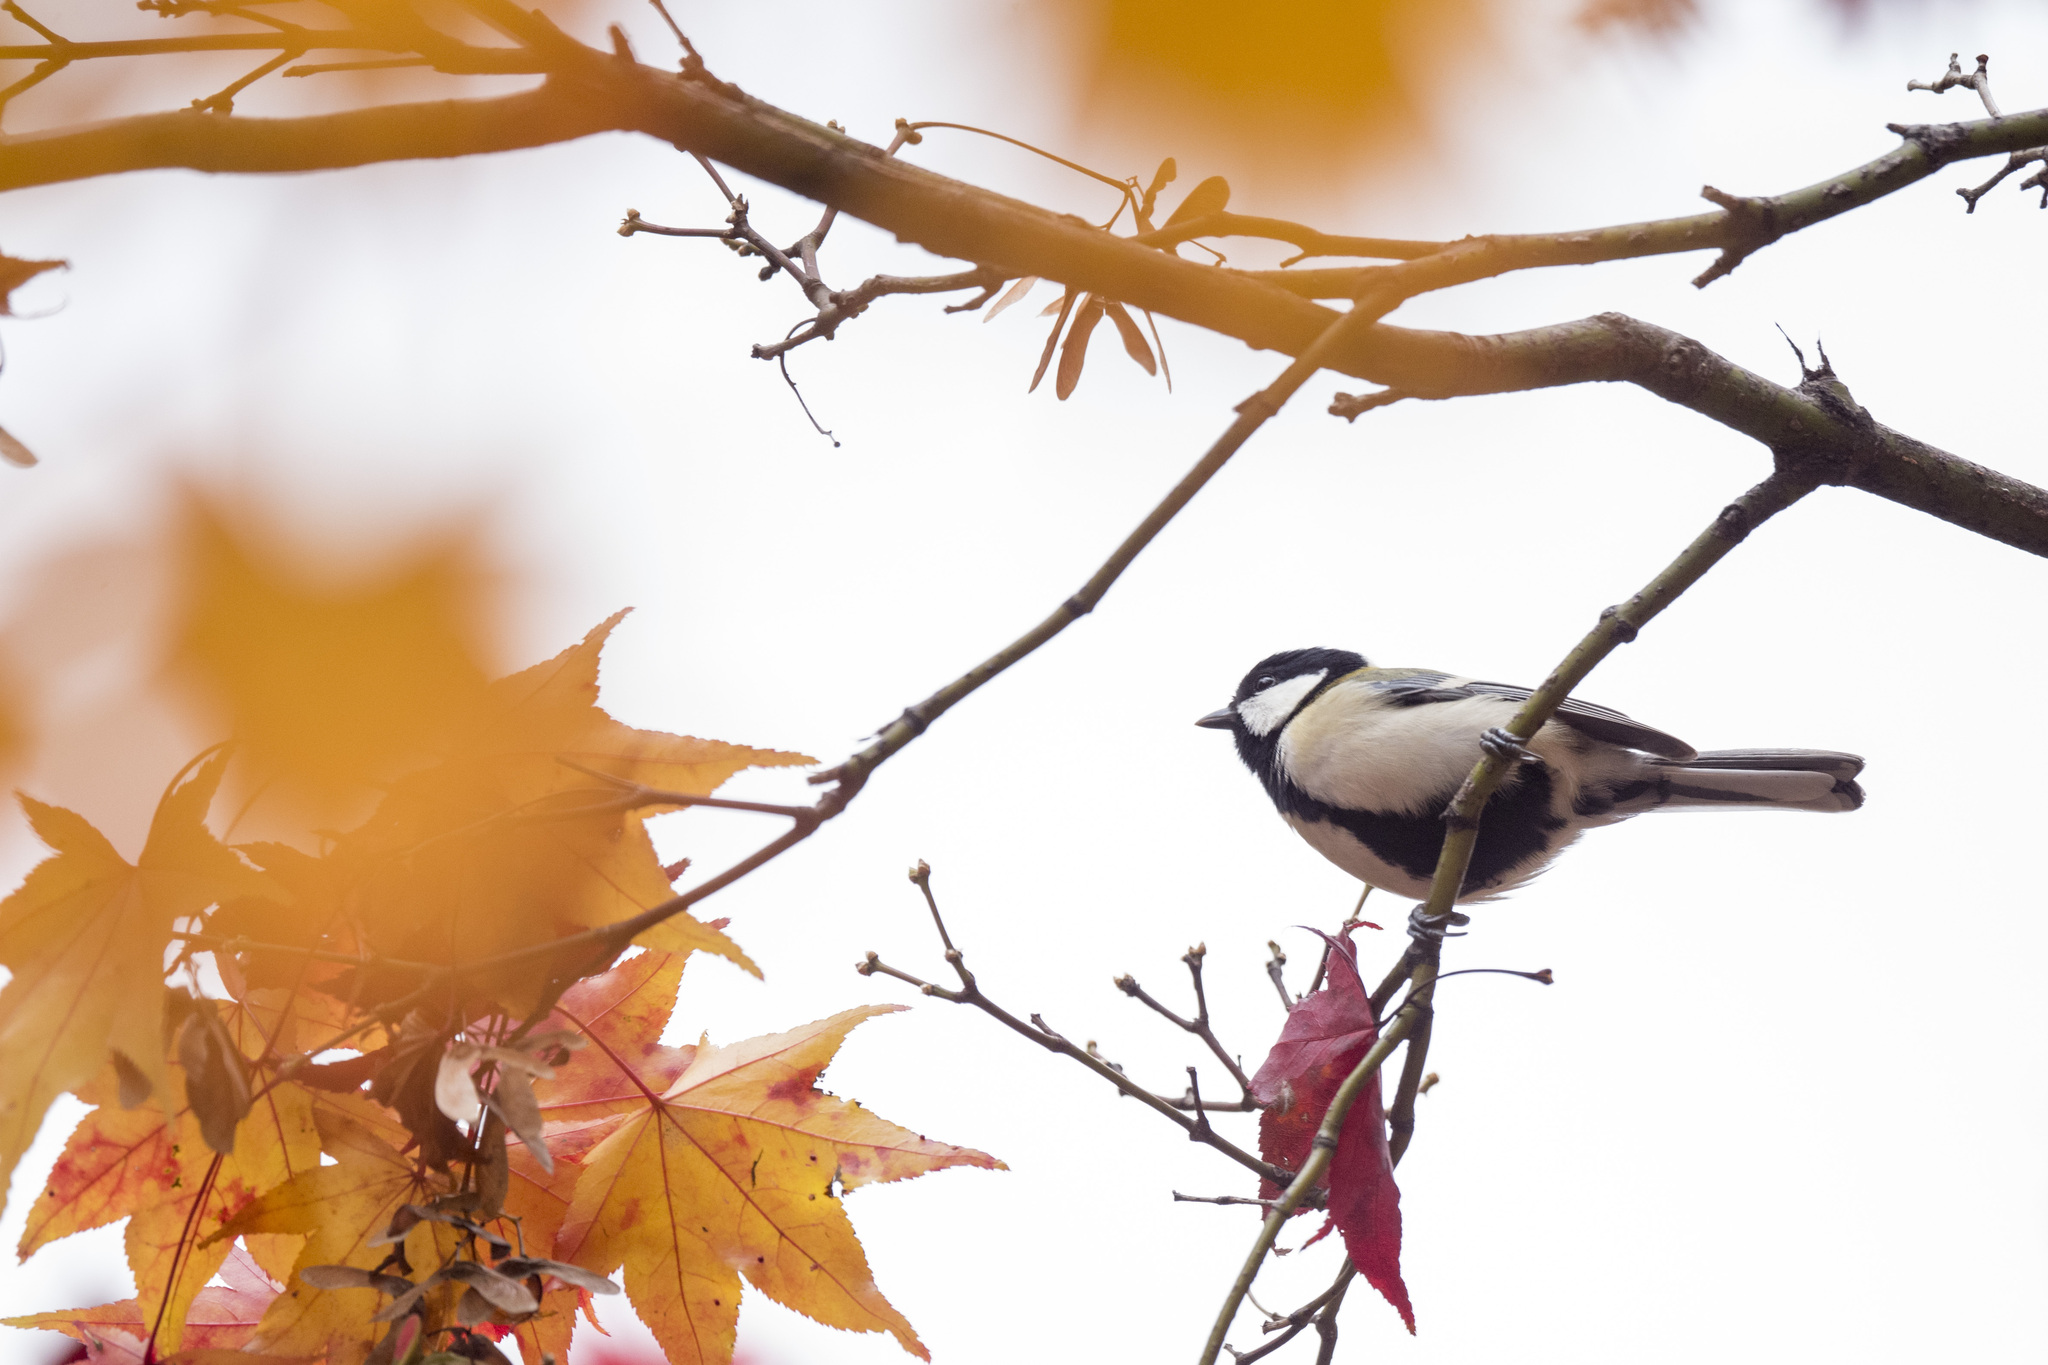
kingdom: Animalia
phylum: Chordata
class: Aves
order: Passeriformes
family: Paridae
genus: Parus
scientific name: Parus minor
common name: Japanese tit
